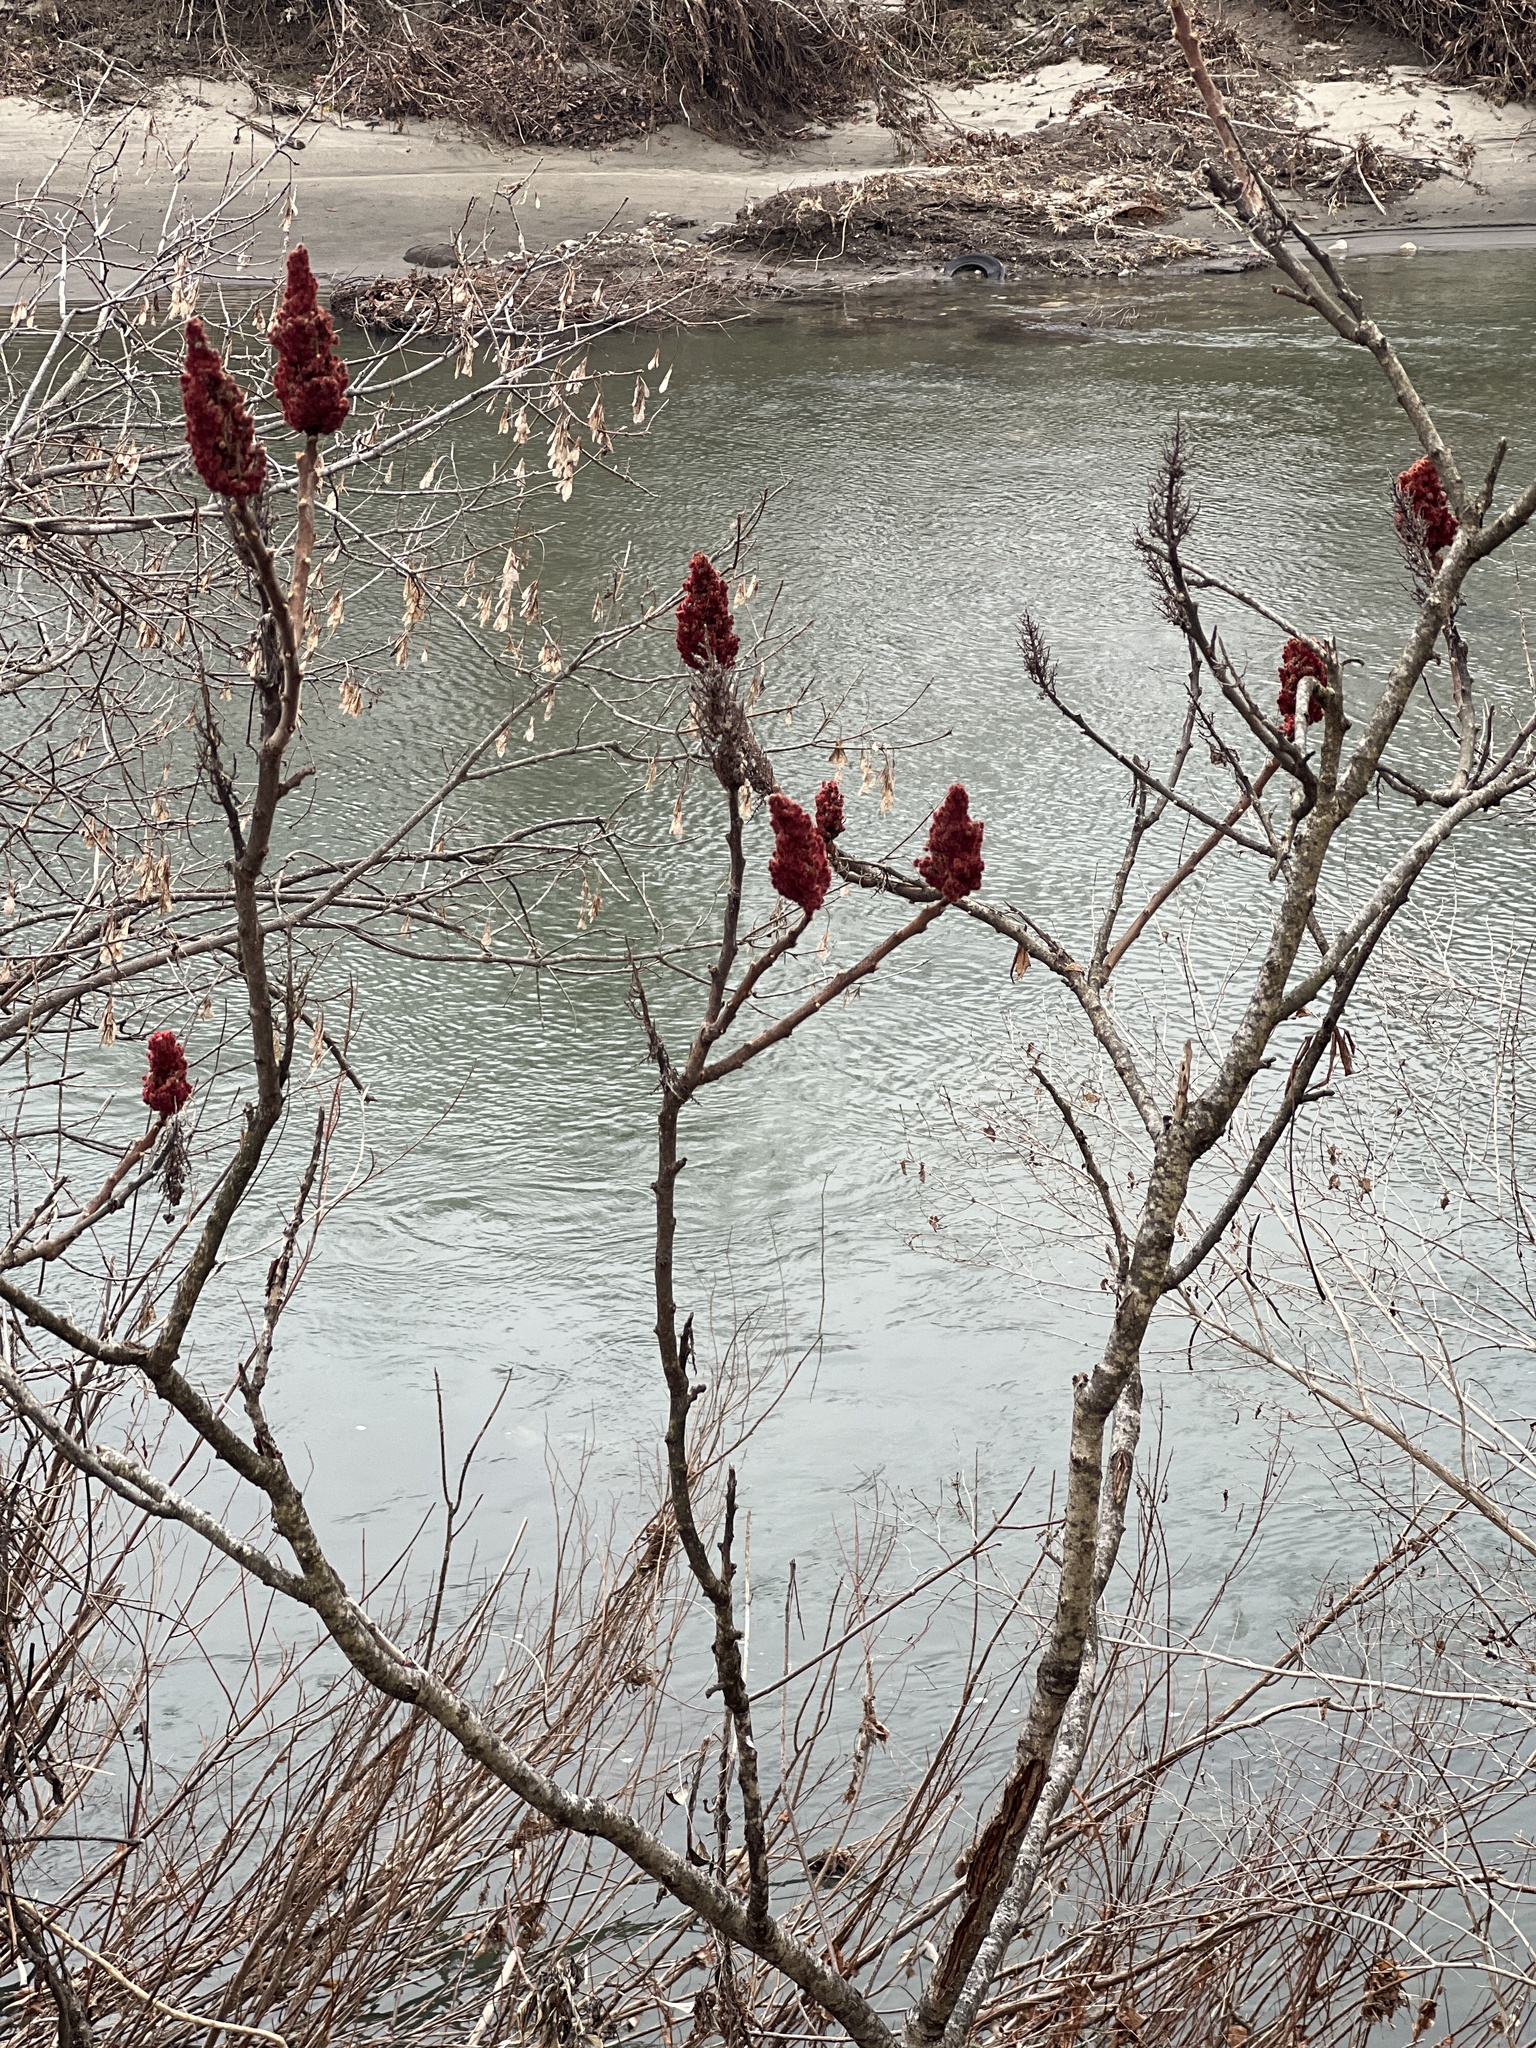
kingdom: Plantae
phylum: Tracheophyta
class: Magnoliopsida
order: Sapindales
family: Anacardiaceae
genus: Rhus
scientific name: Rhus typhina
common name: Staghorn sumac
